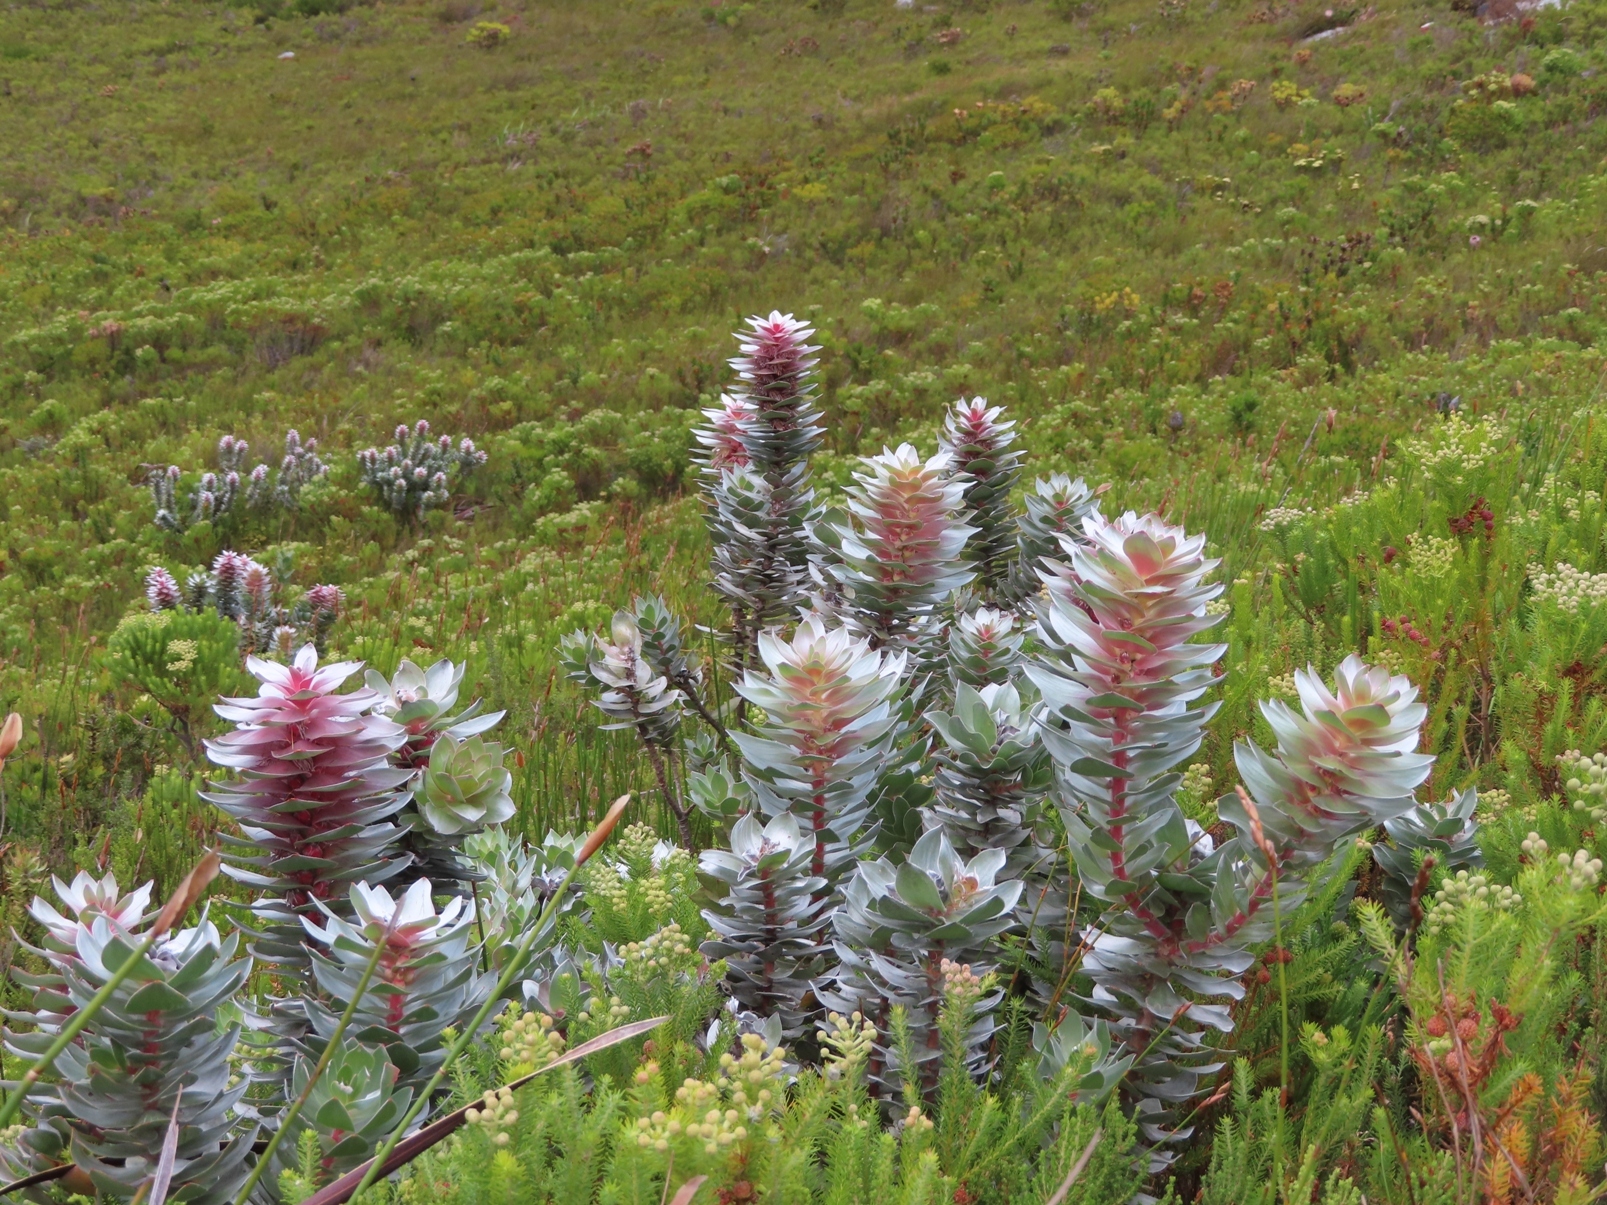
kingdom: Plantae
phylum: Tracheophyta
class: Magnoliopsida
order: Proteales
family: Proteaceae
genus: Mimetes
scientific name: Mimetes argenteus
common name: Silver pagoda
